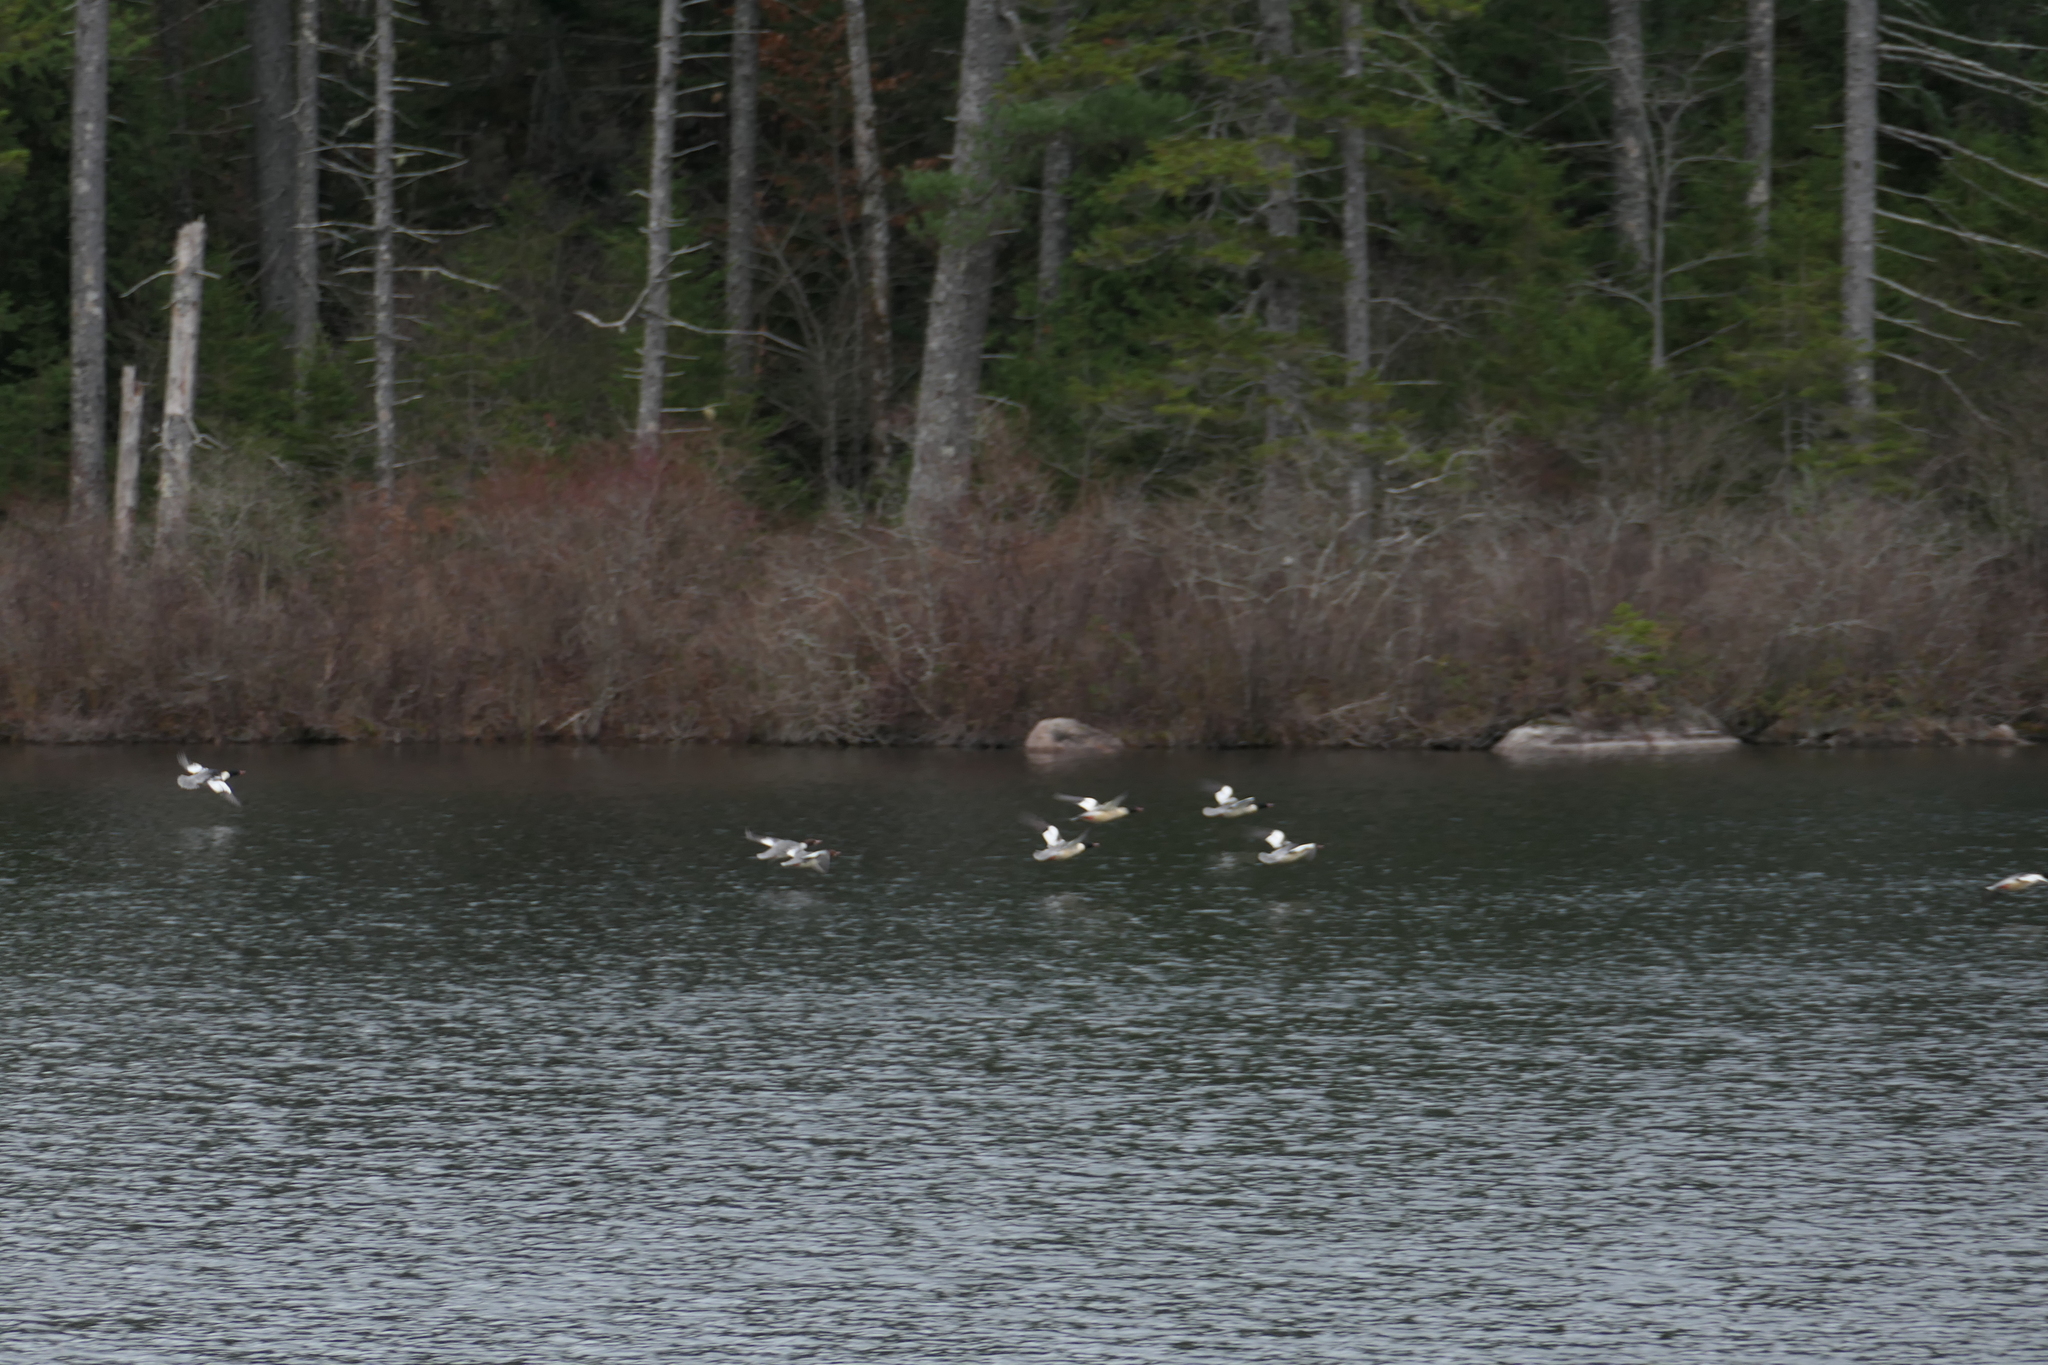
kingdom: Animalia
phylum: Chordata
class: Aves
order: Anseriformes
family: Anatidae
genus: Mergus
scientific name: Mergus merganser
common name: Common merganser
